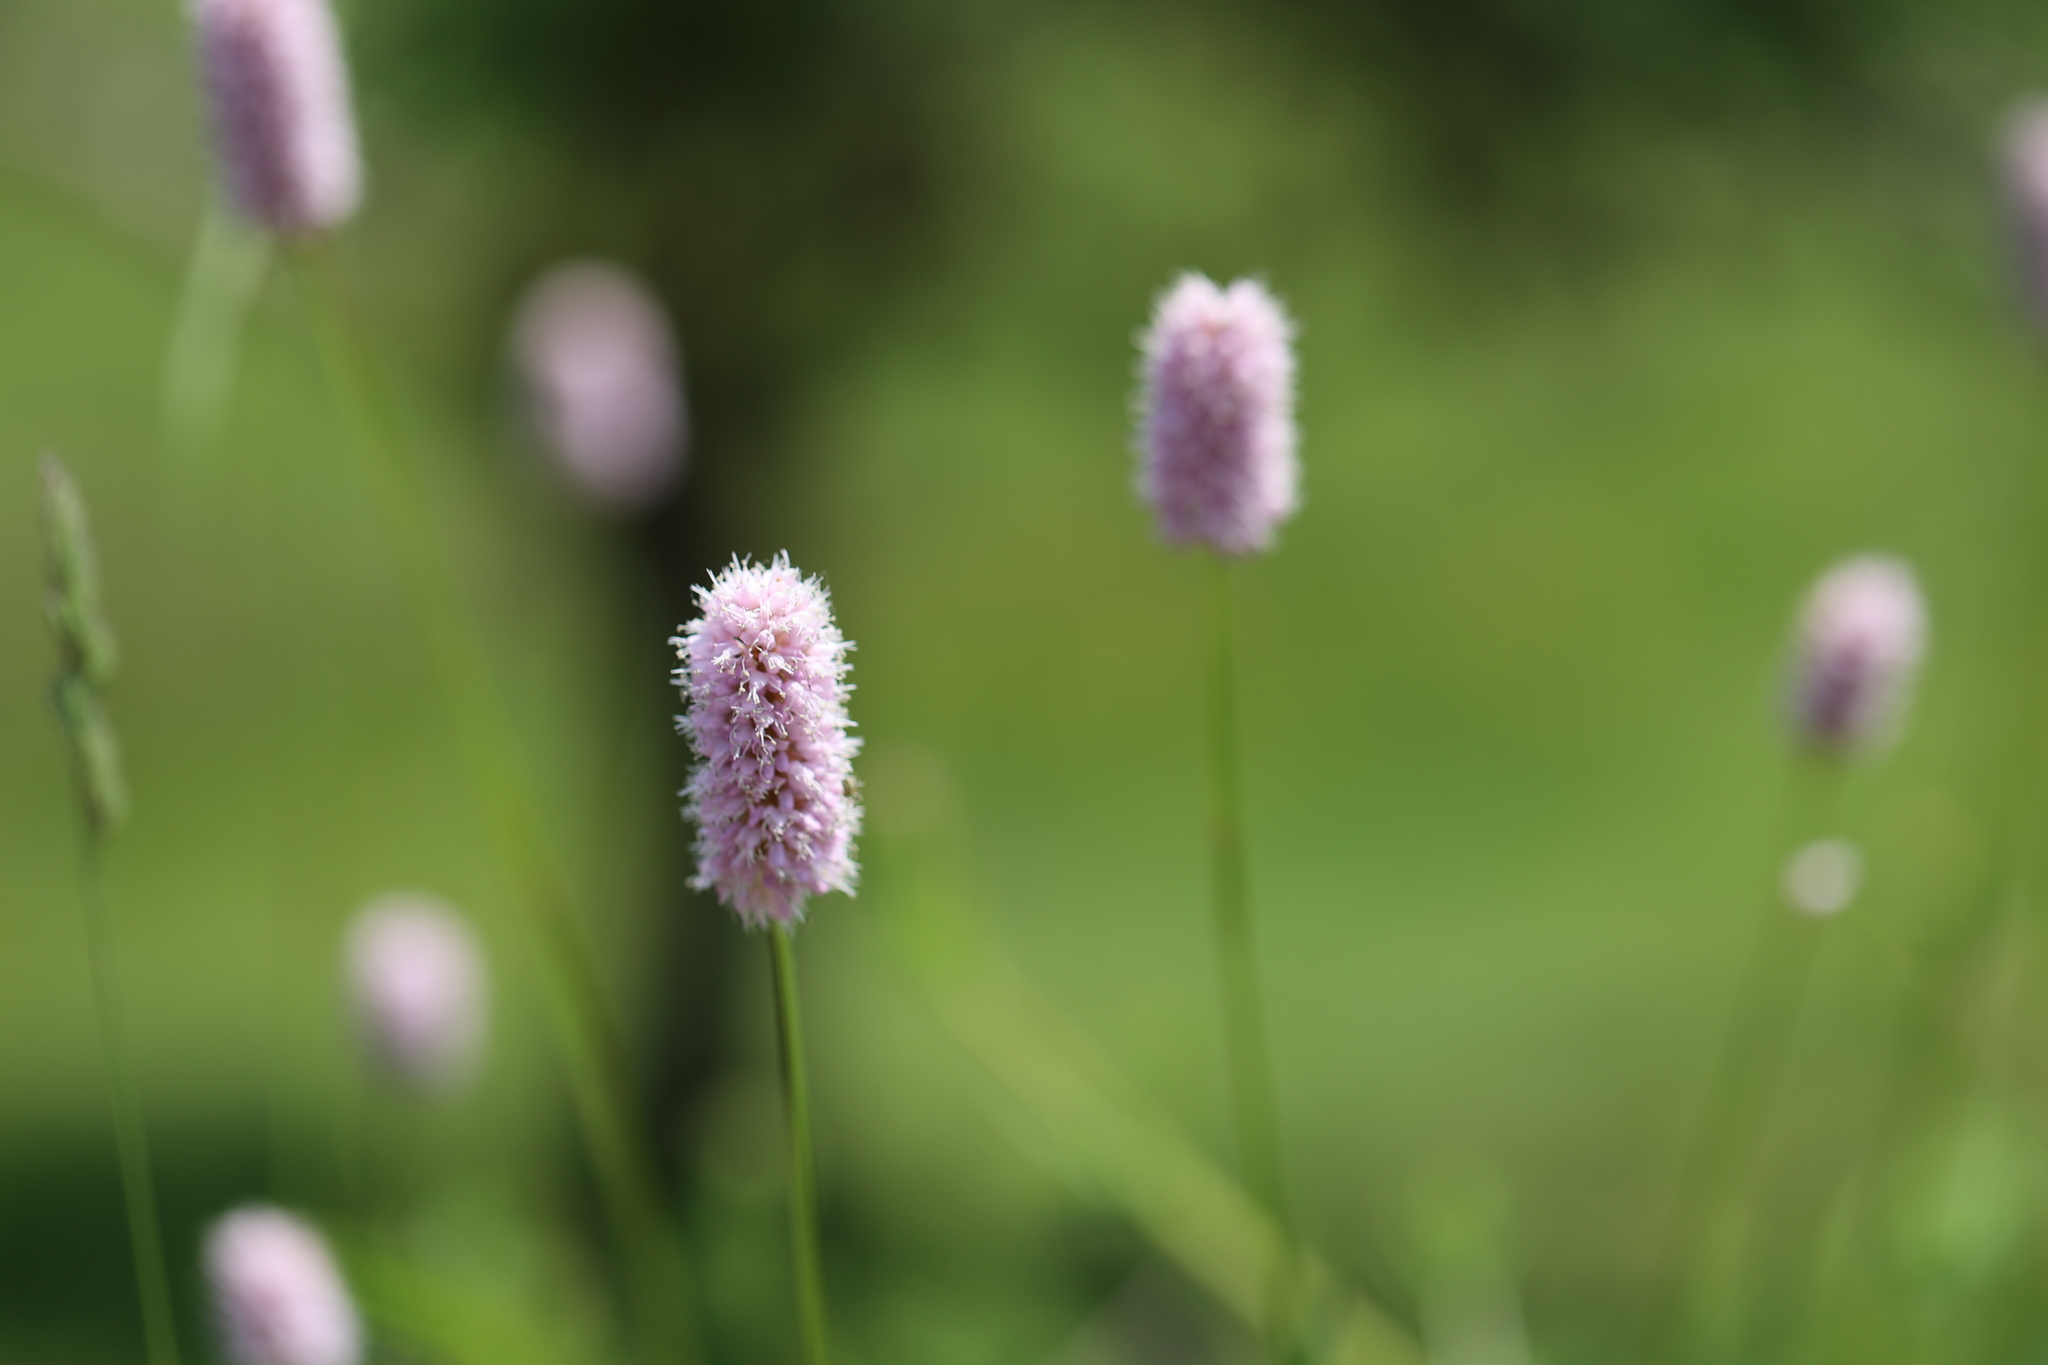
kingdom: Plantae
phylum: Tracheophyta
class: Magnoliopsida
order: Caryophyllales
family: Polygonaceae
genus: Bistorta
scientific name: Bistorta officinalis
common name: Common bistort
